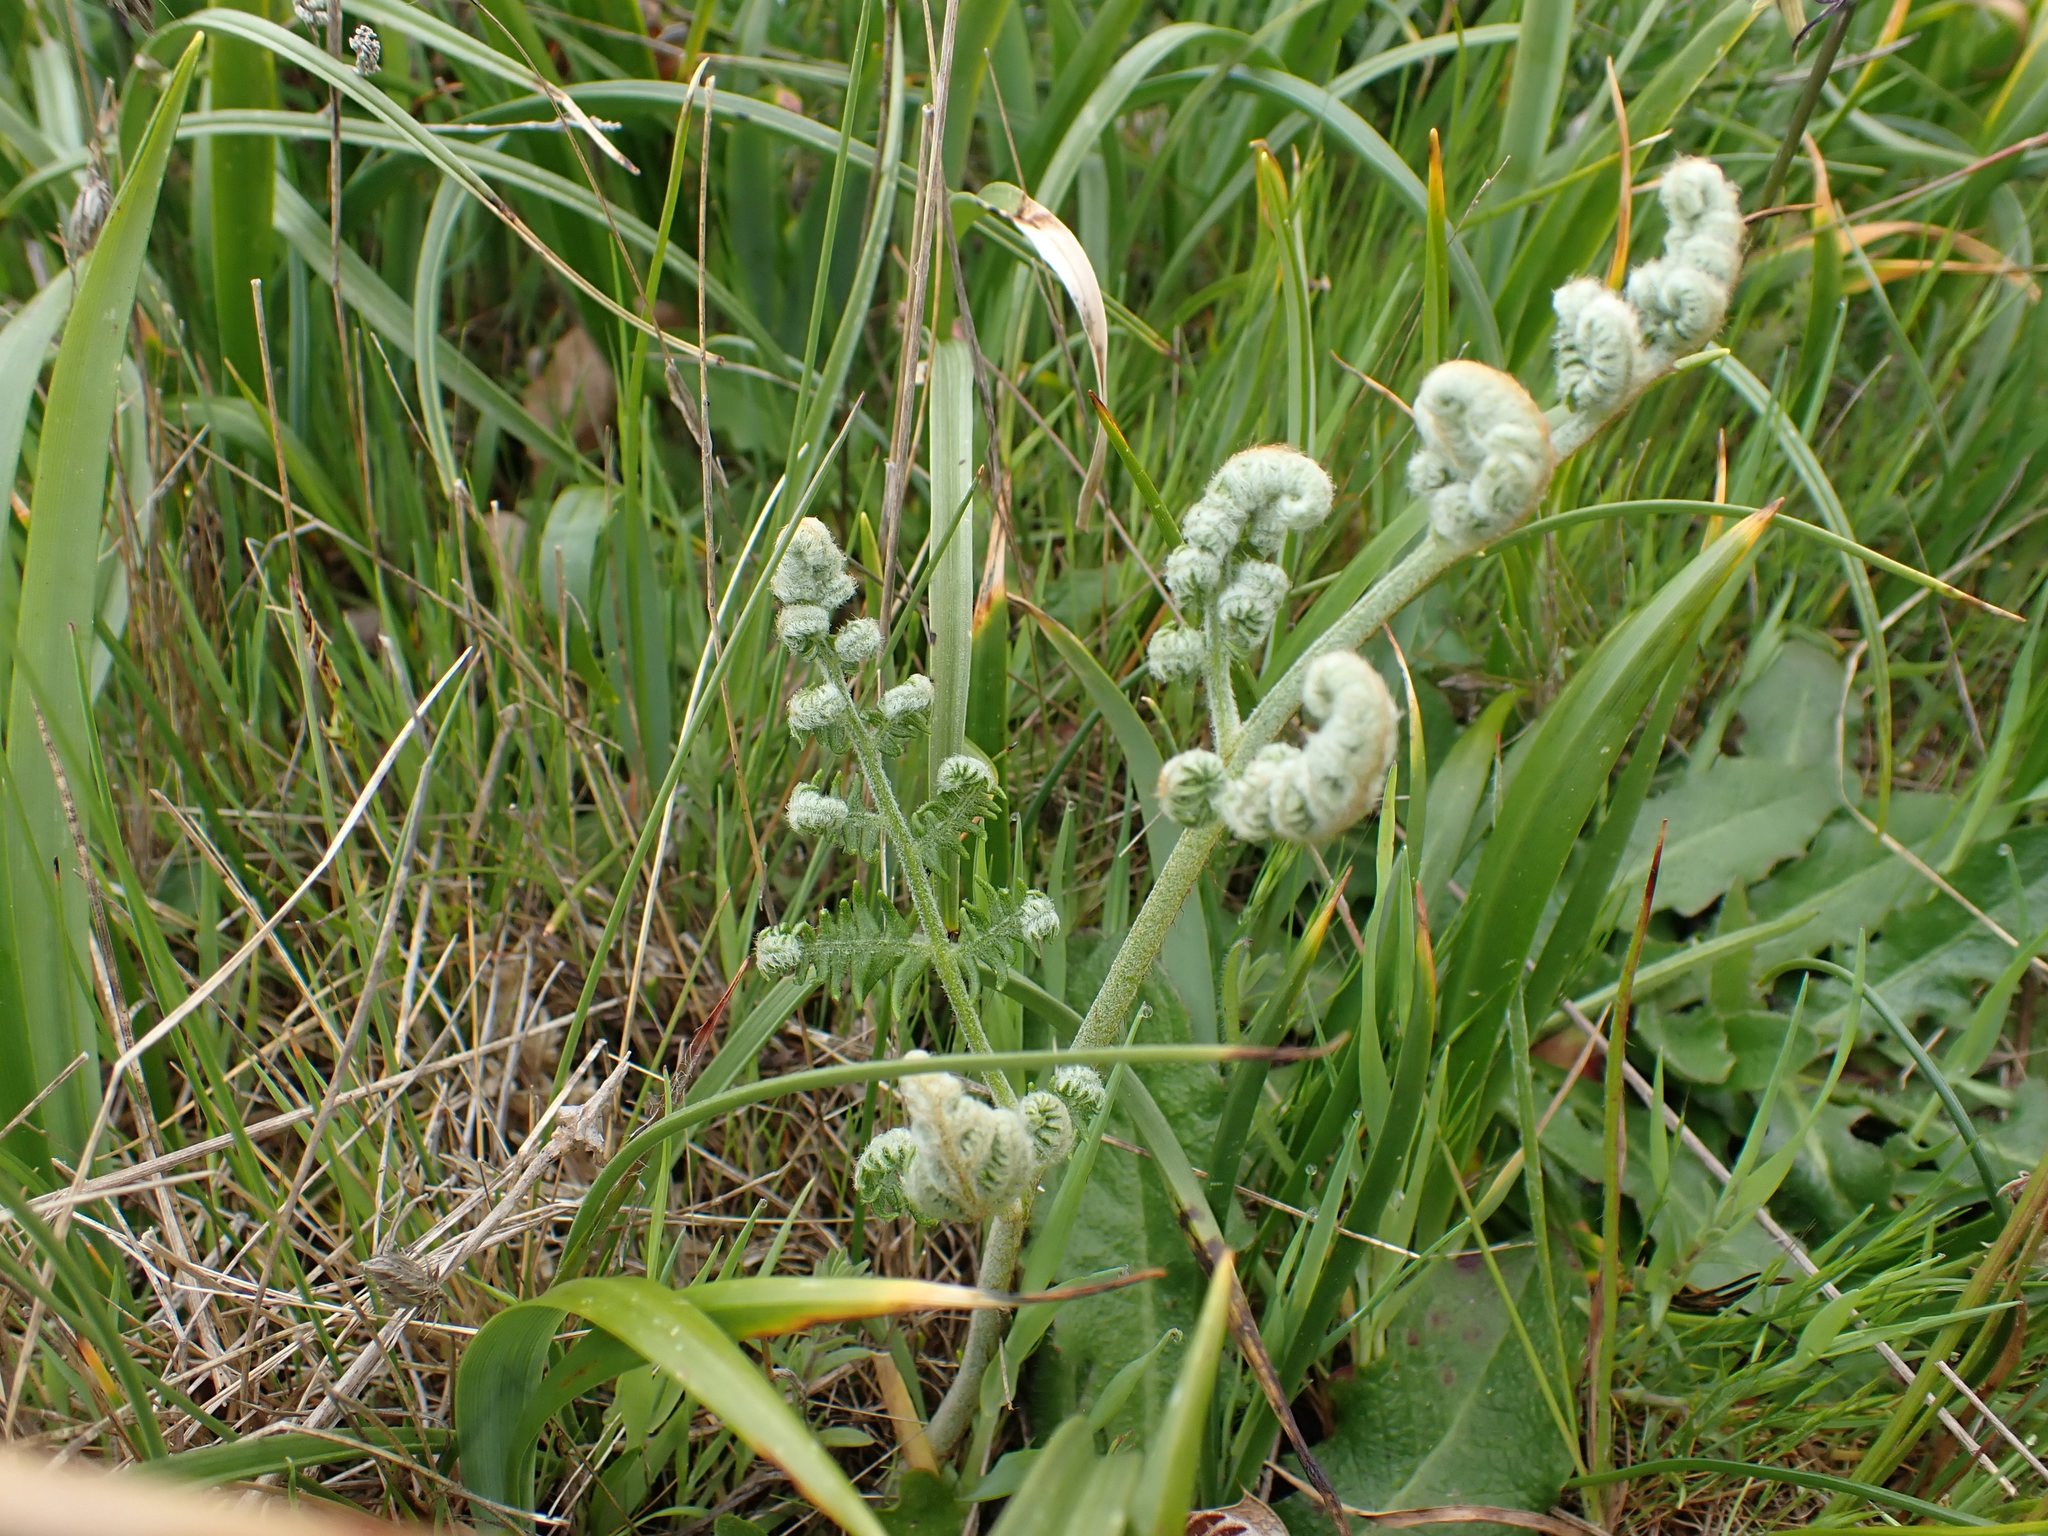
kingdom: Plantae
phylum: Tracheophyta
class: Polypodiopsida
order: Polypodiales
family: Dennstaedtiaceae
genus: Pteridium
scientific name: Pteridium aquilinum
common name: Bracken
